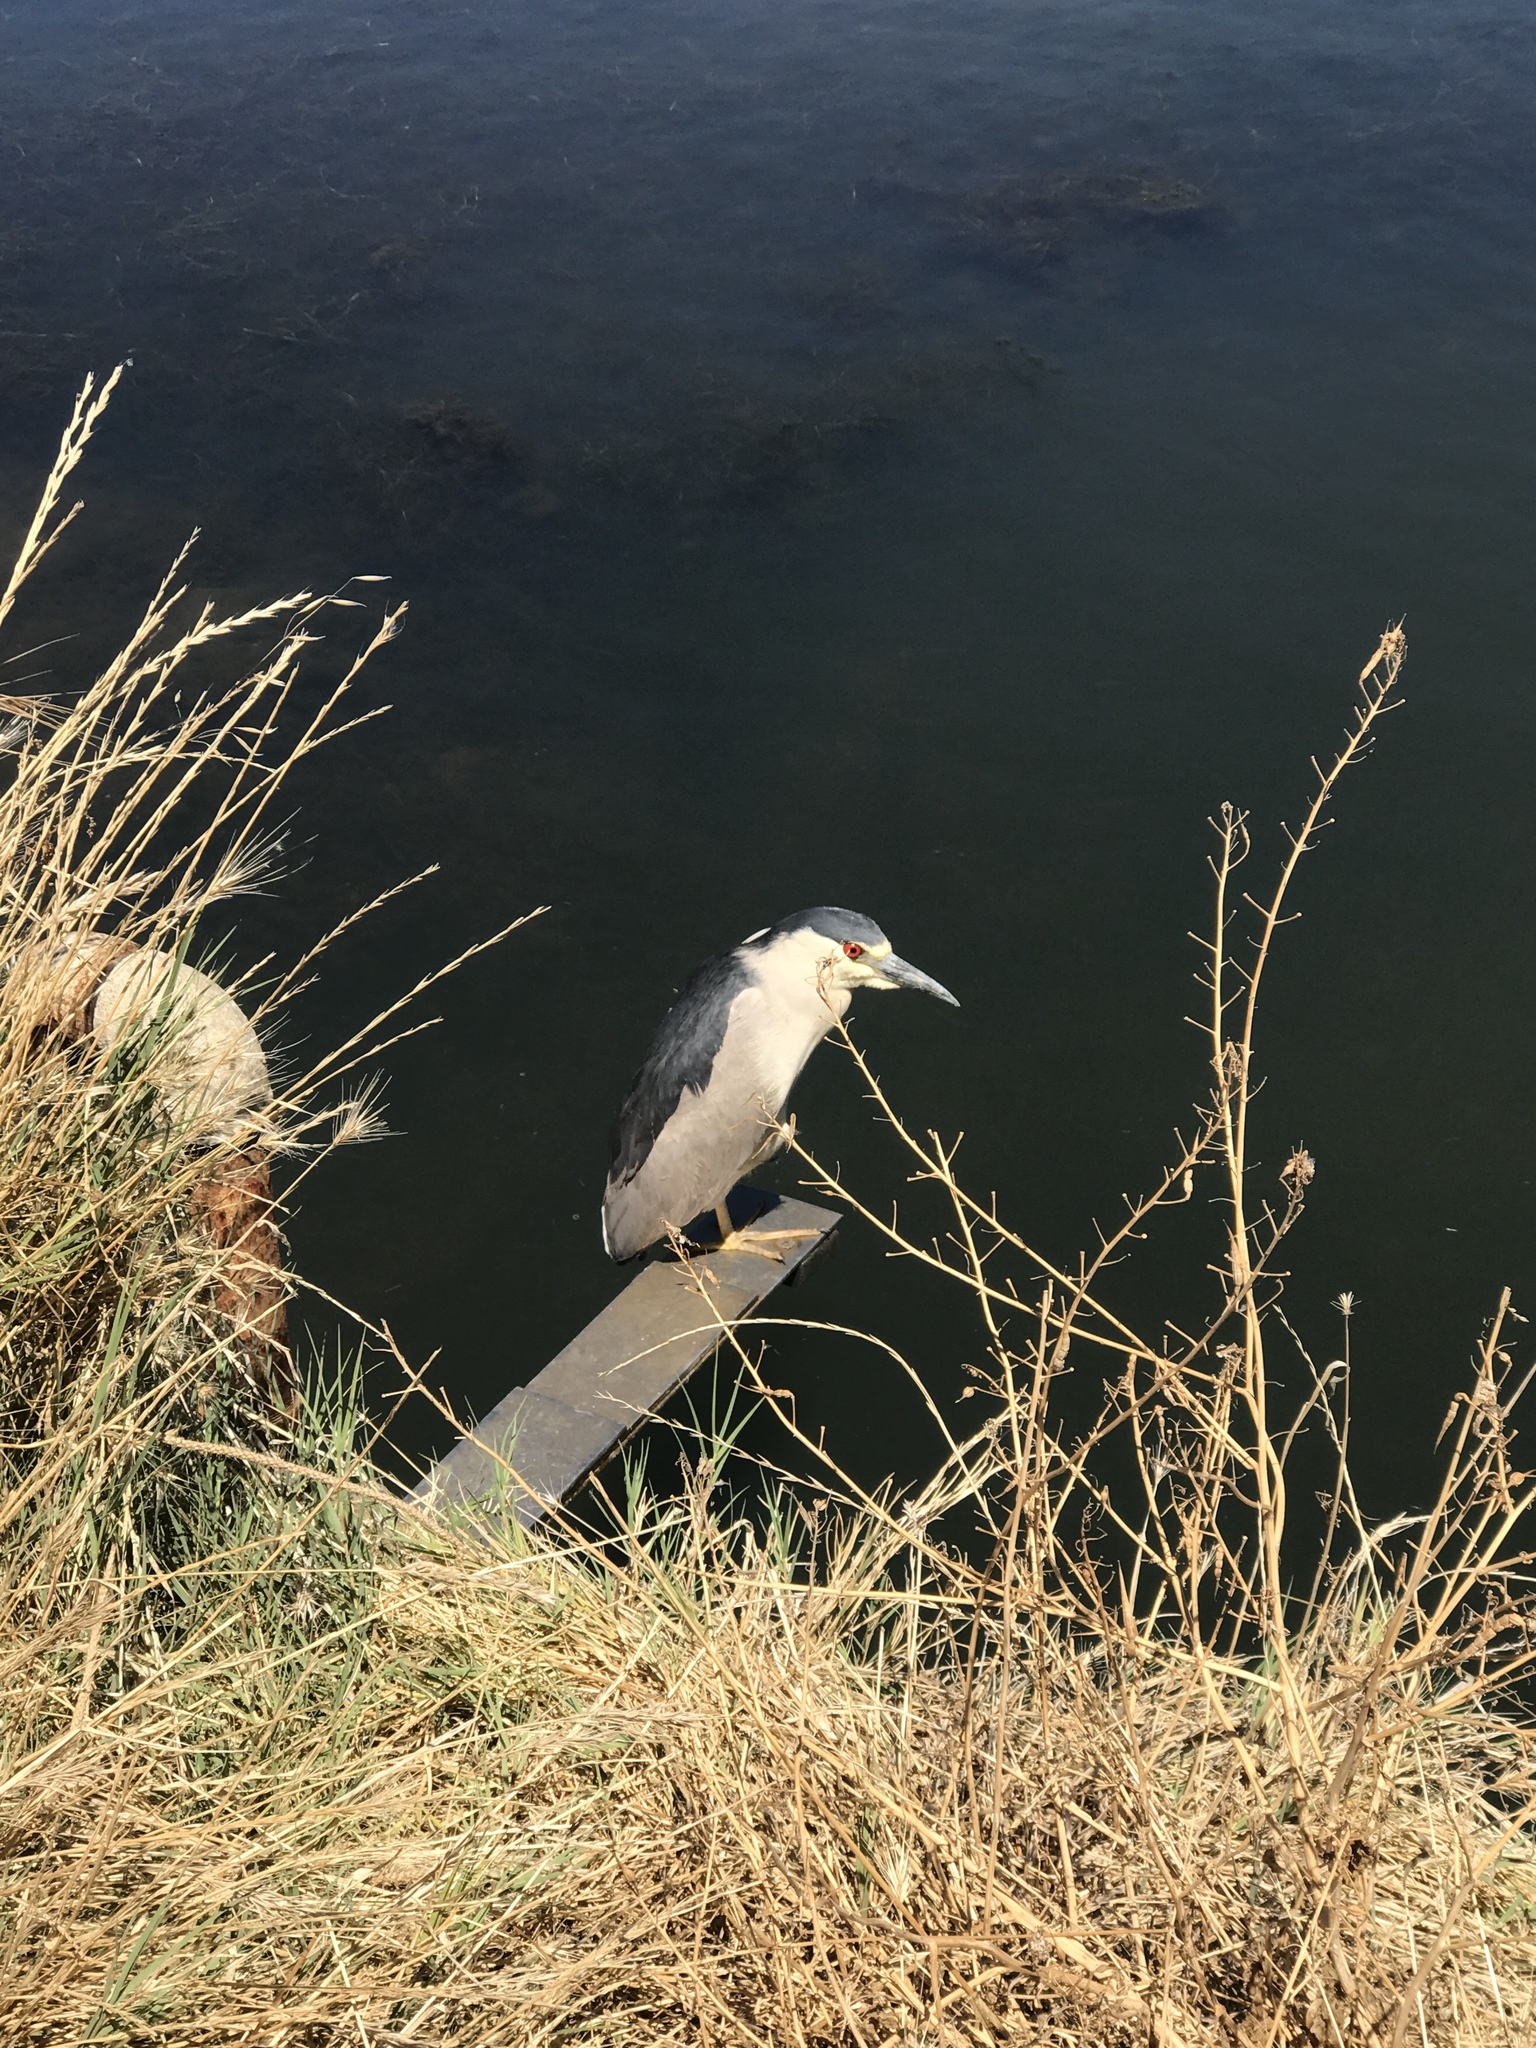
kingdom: Animalia
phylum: Chordata
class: Aves
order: Pelecaniformes
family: Ardeidae
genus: Nycticorax
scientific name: Nycticorax nycticorax
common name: Black-crowned night heron
